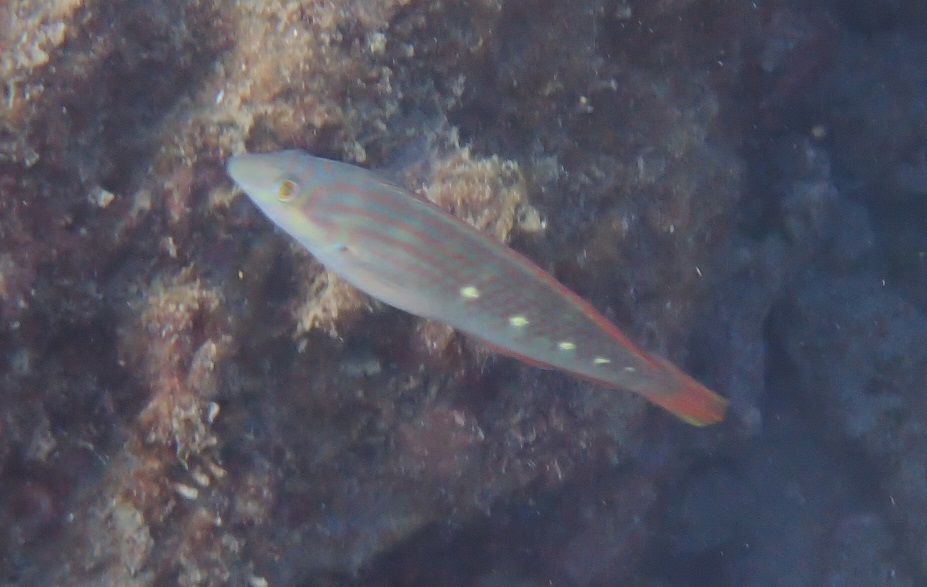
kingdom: Animalia
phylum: Chordata
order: Perciformes
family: Labridae
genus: Halichoeres
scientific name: Halichoeres nigrescens
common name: Bubblefin wrasse
